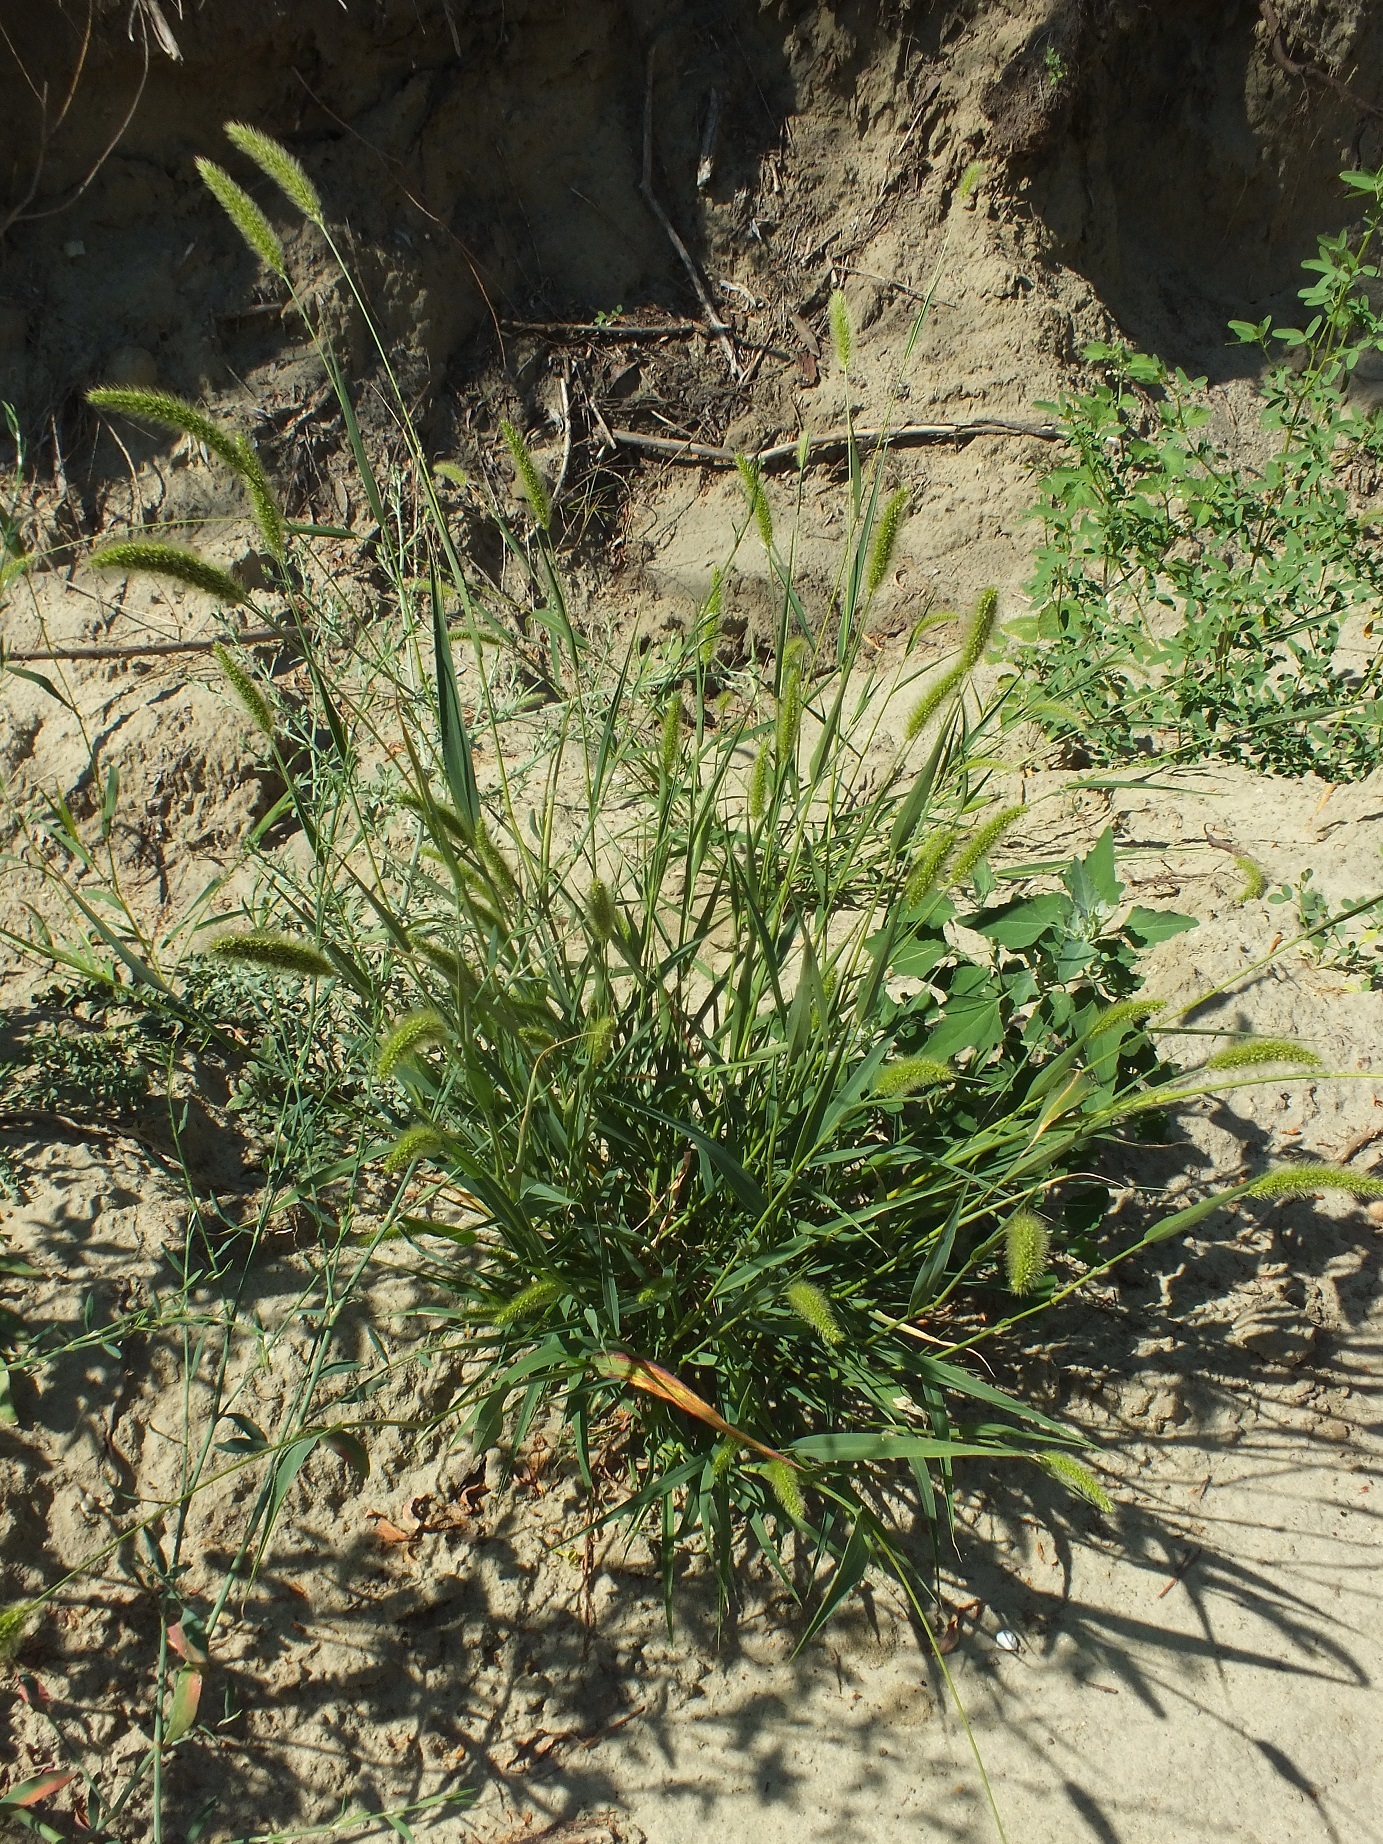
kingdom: Plantae
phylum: Tracheophyta
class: Liliopsida
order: Poales
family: Poaceae
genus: Setaria
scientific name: Setaria viridis
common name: Green bristlegrass
